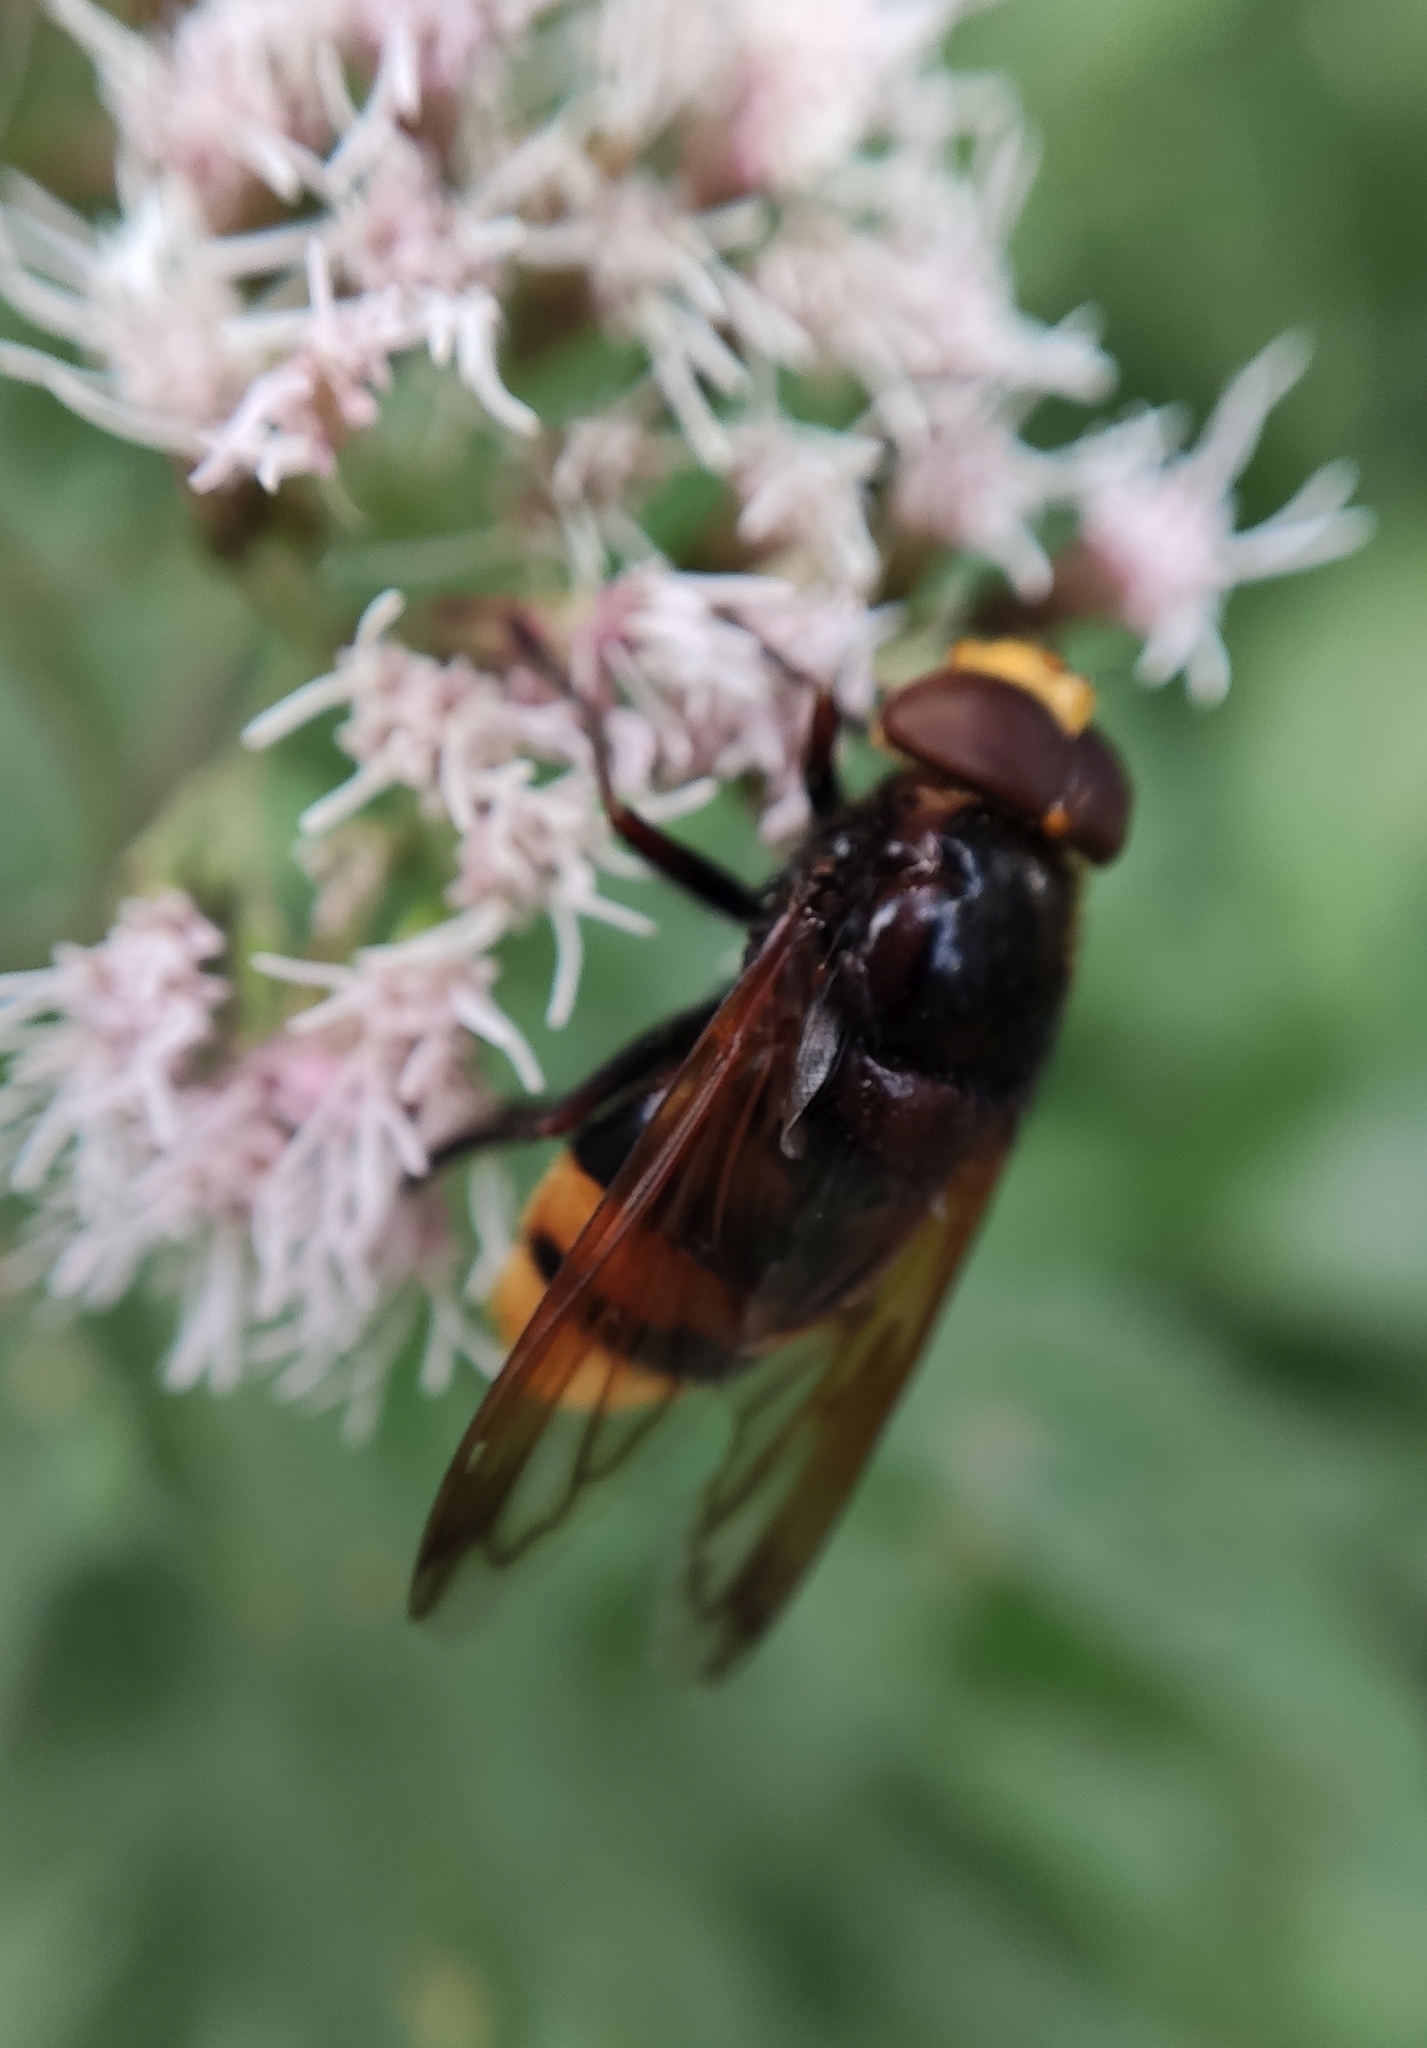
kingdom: Animalia
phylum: Arthropoda
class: Insecta
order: Diptera
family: Syrphidae
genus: Volucella
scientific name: Volucella zonaria
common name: Hornet hoverfly
